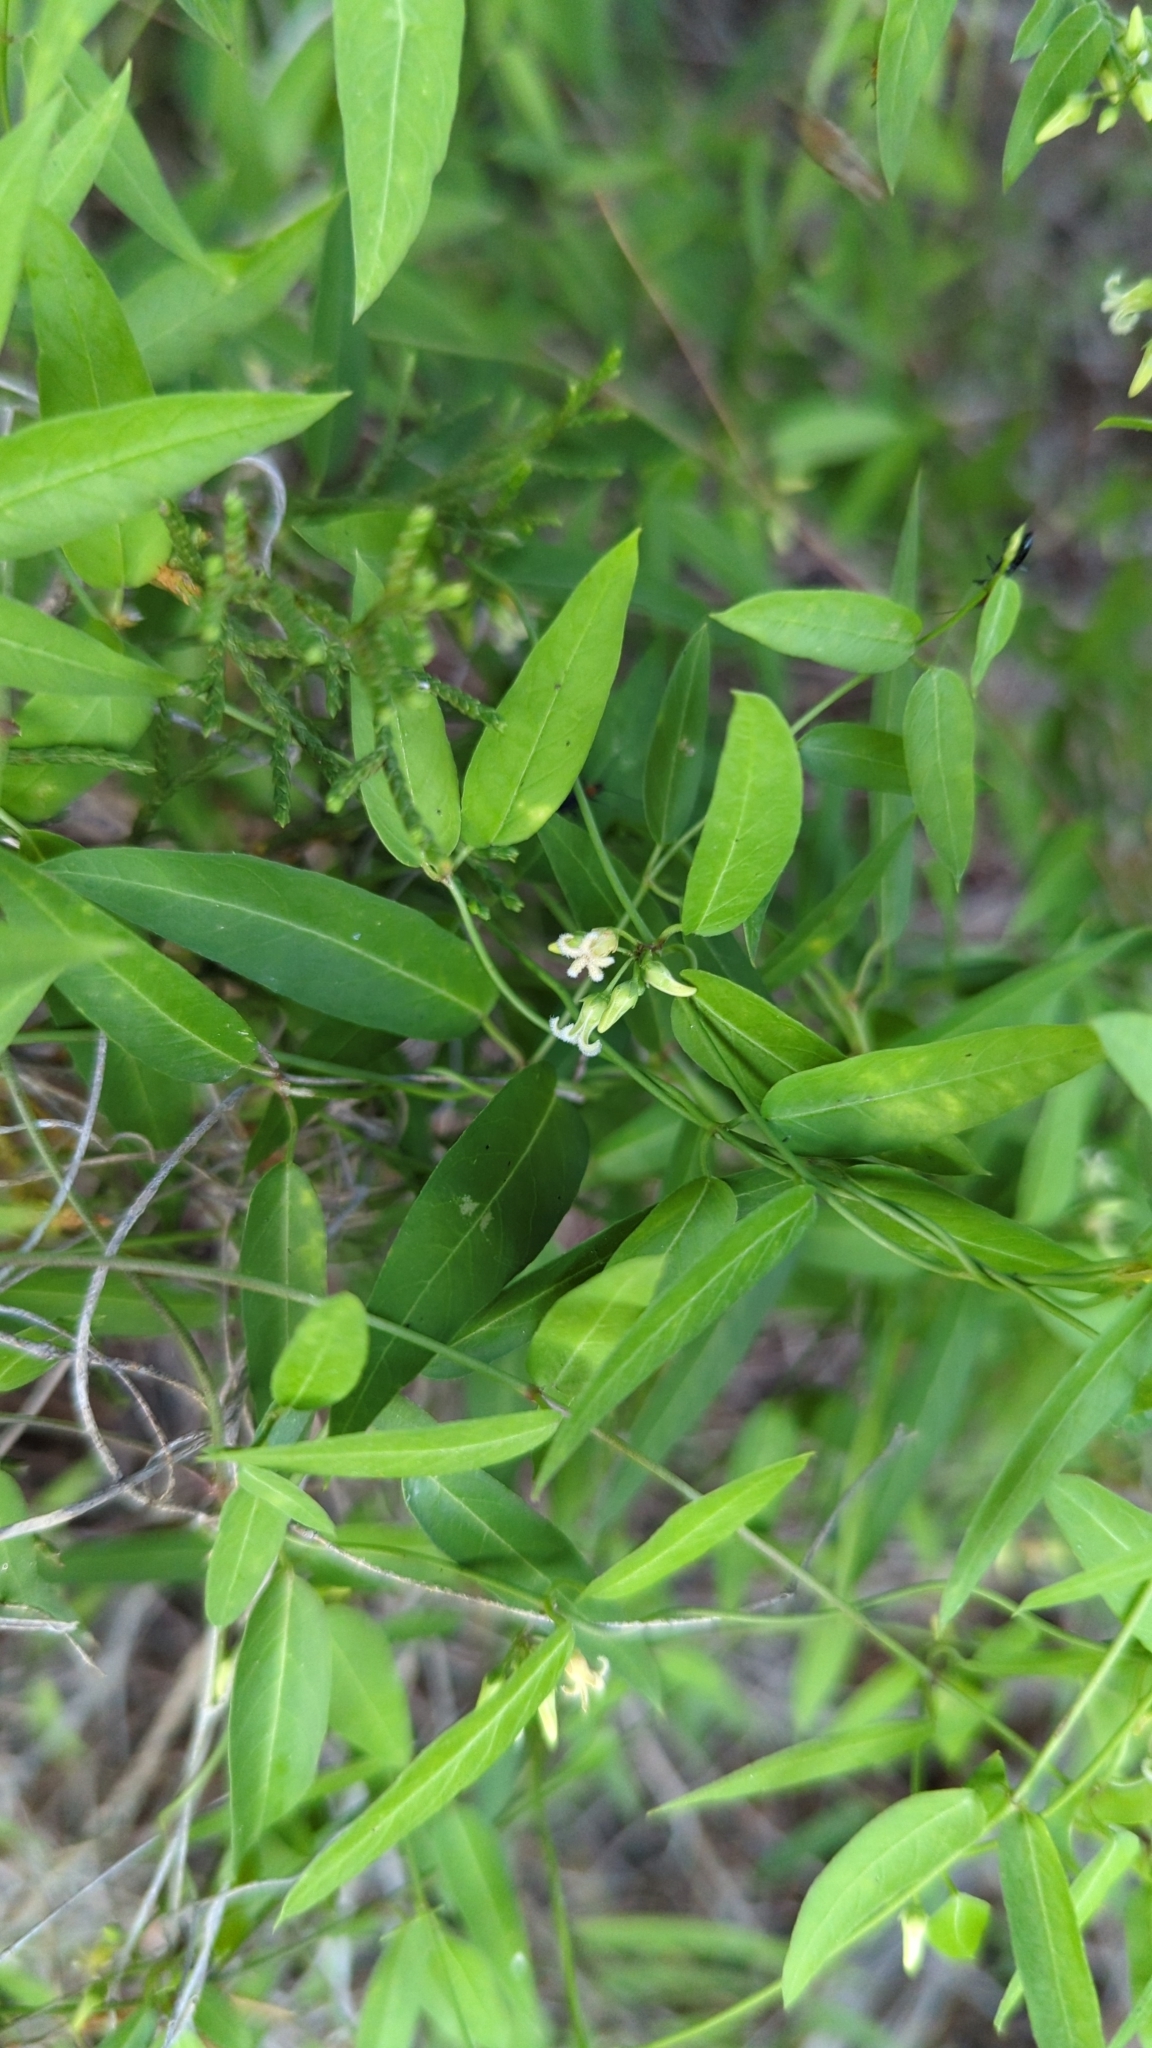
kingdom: Plantae
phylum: Tracheophyta
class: Magnoliopsida
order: Gentianales
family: Apocynaceae
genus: Metastelma
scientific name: Metastelma barbigerum
